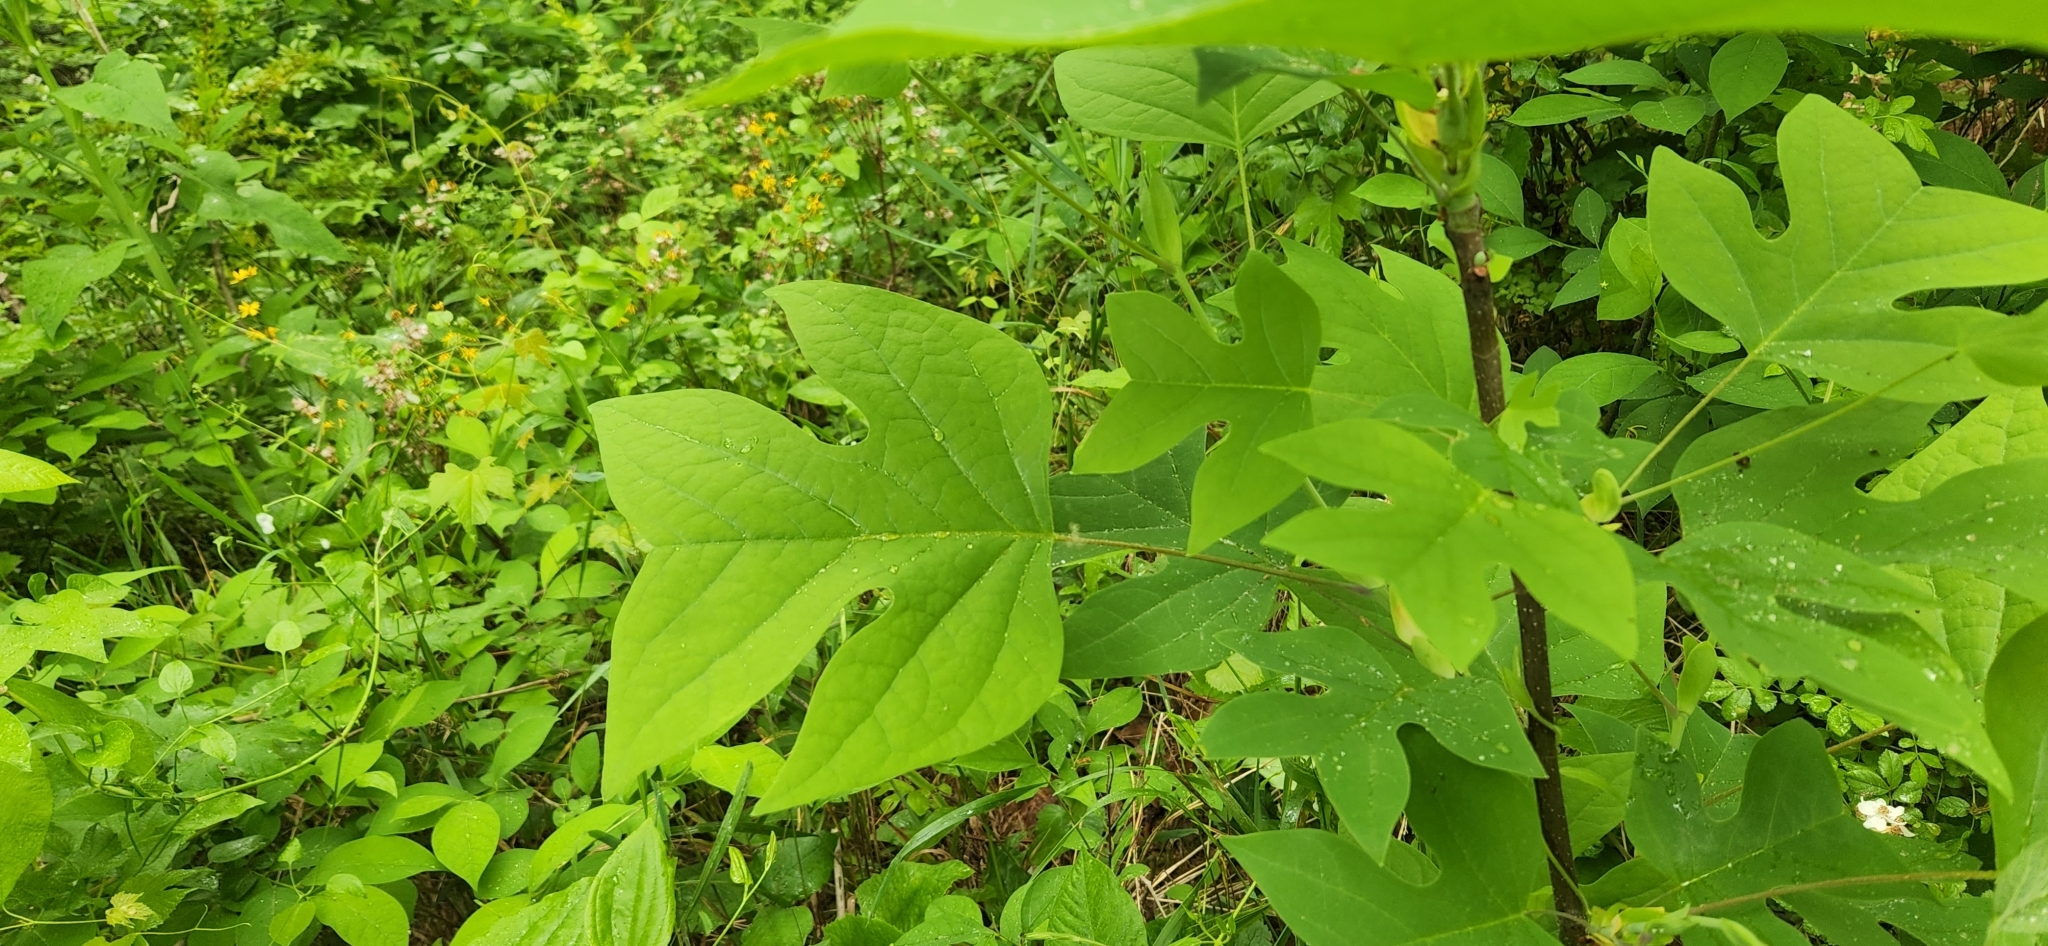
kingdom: Plantae
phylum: Tracheophyta
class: Magnoliopsida
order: Magnoliales
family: Magnoliaceae
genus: Liriodendron
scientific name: Liriodendron tulipifera
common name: Tulip tree
